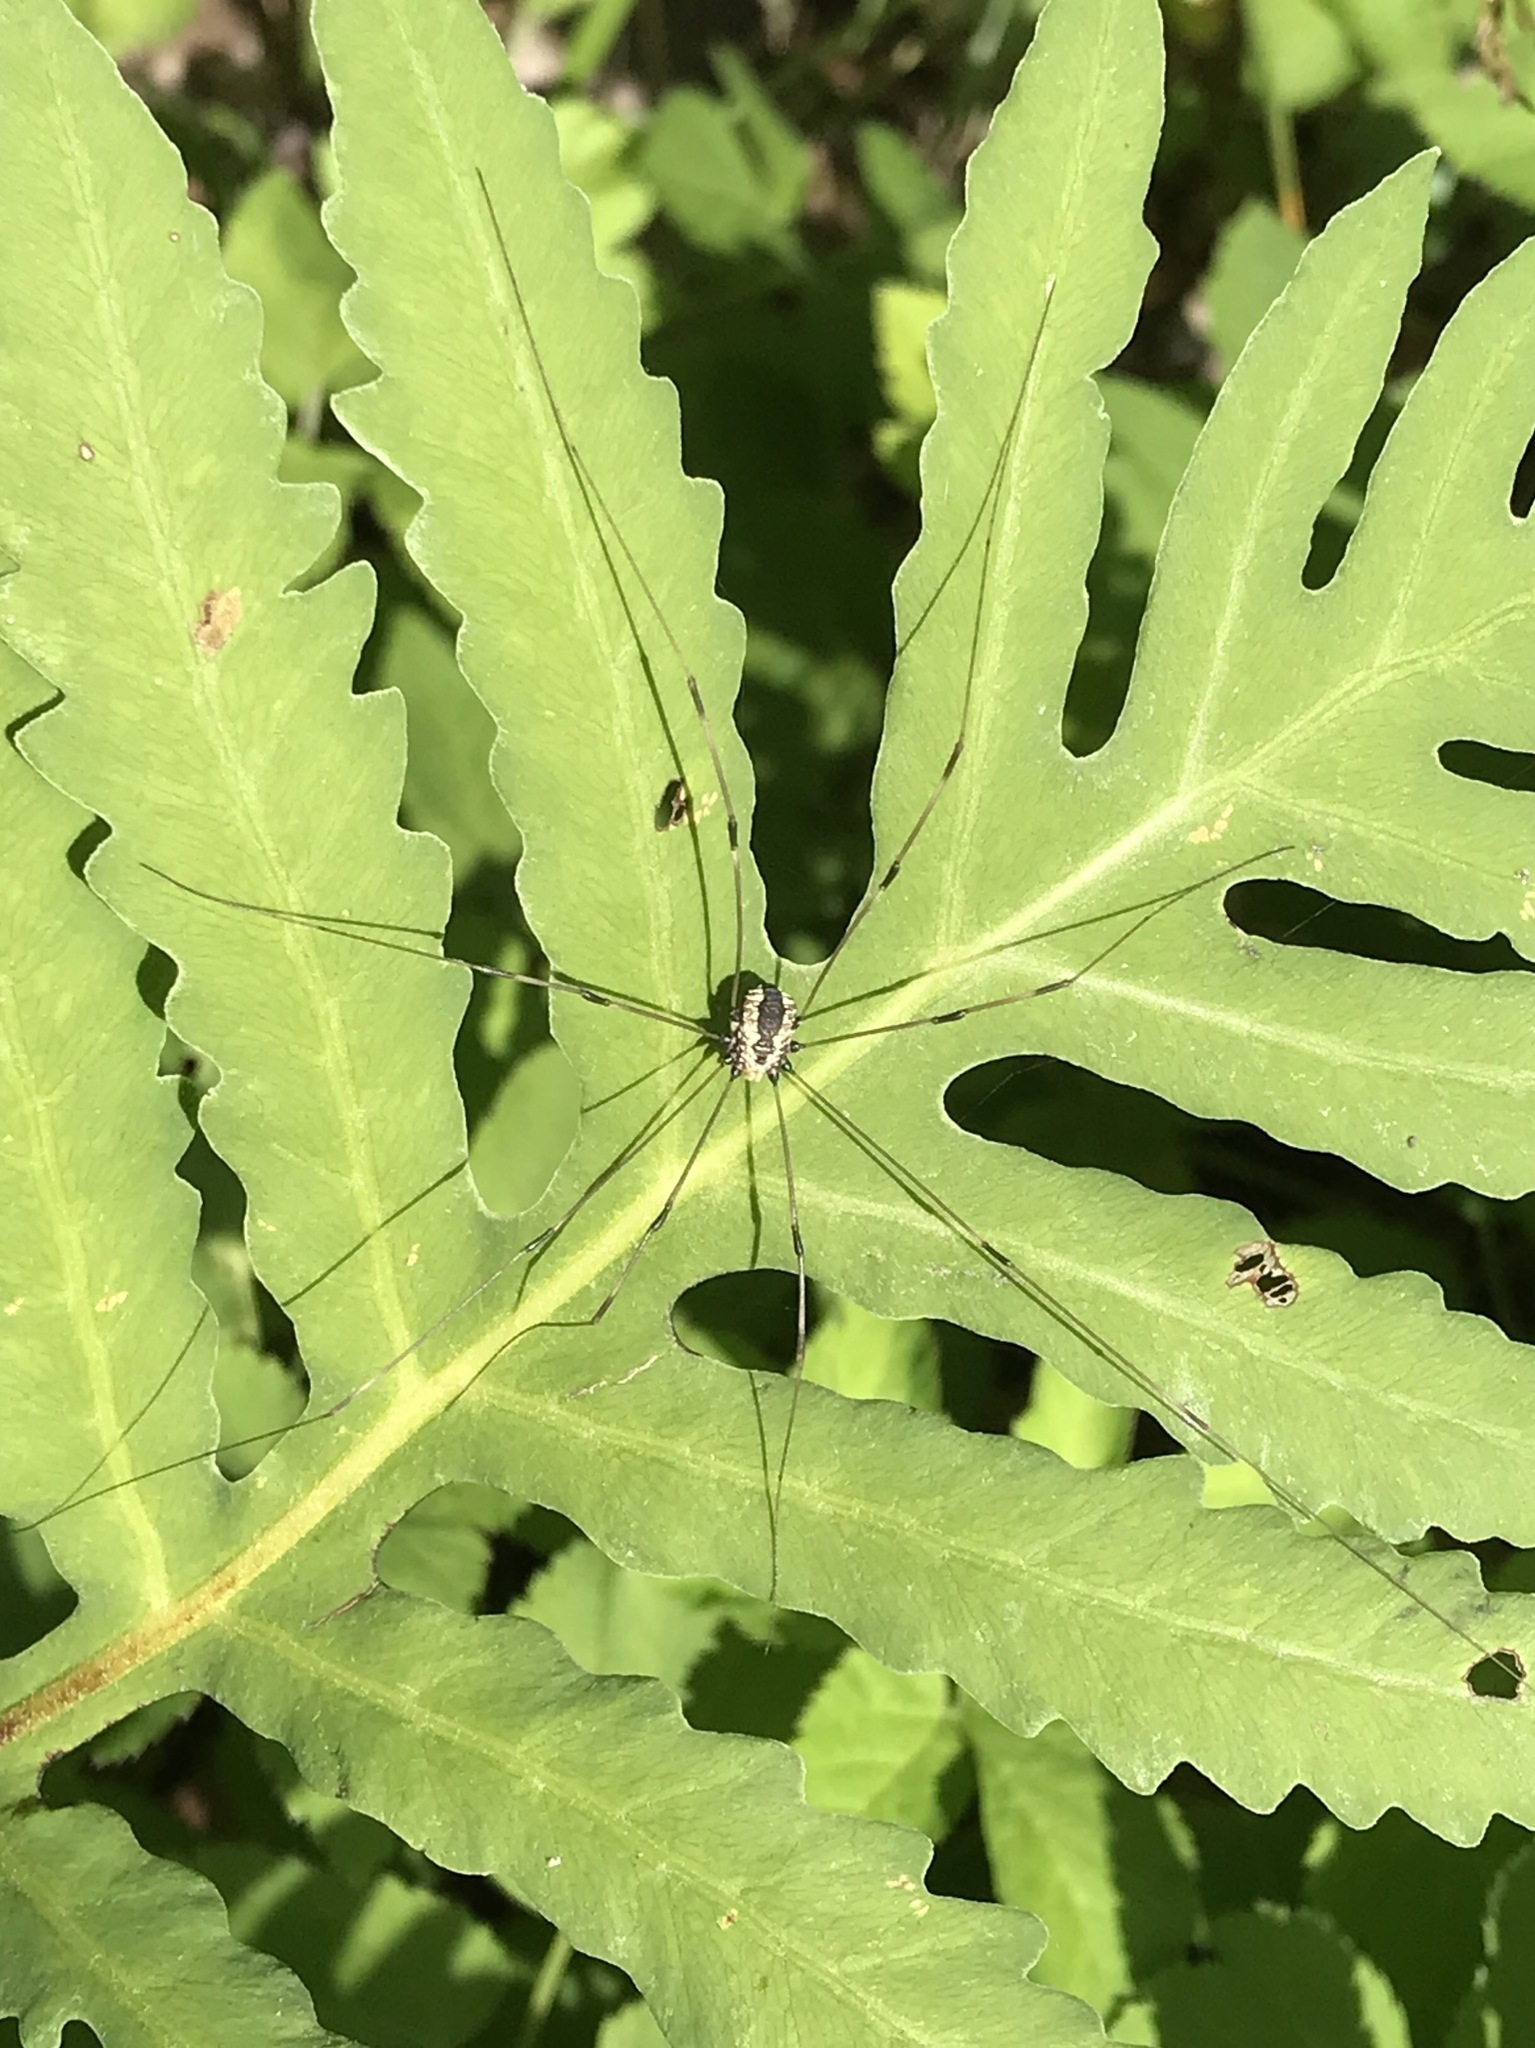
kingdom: Animalia
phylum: Arthropoda
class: Arachnida
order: Opiliones
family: Sclerosomatidae
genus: Leiobunum
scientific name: Leiobunum vittatum
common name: Eastern harvestman
